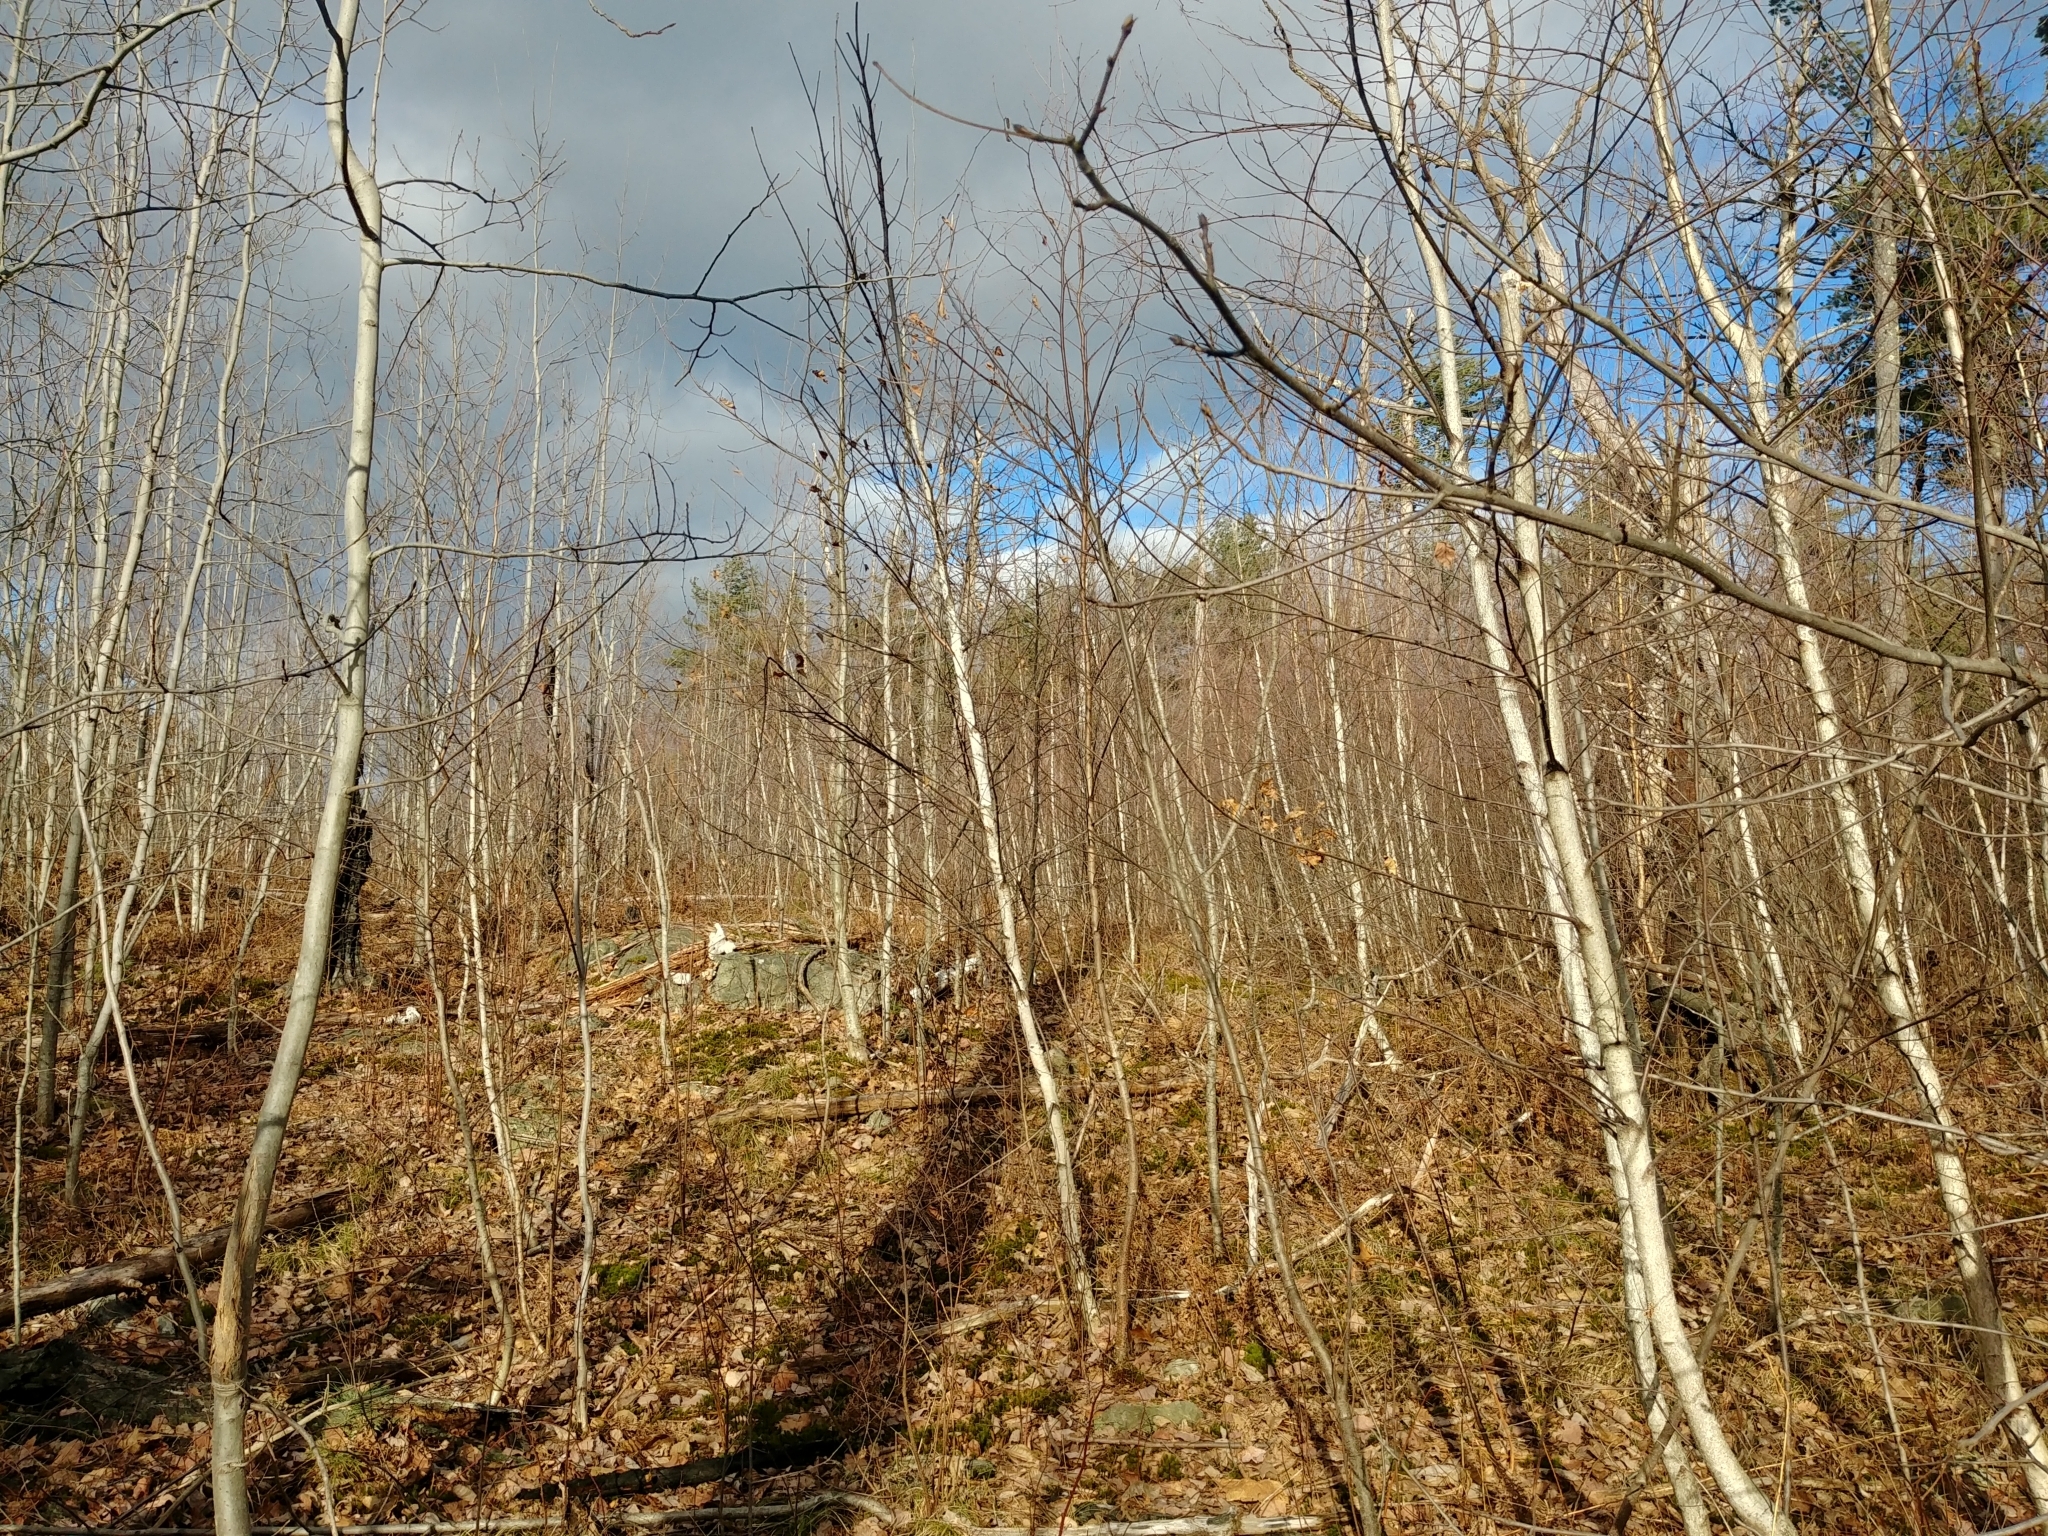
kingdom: Plantae
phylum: Tracheophyta
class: Magnoliopsida
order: Fagales
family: Betulaceae
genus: Betula
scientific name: Betula papyrifera
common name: Paper birch
